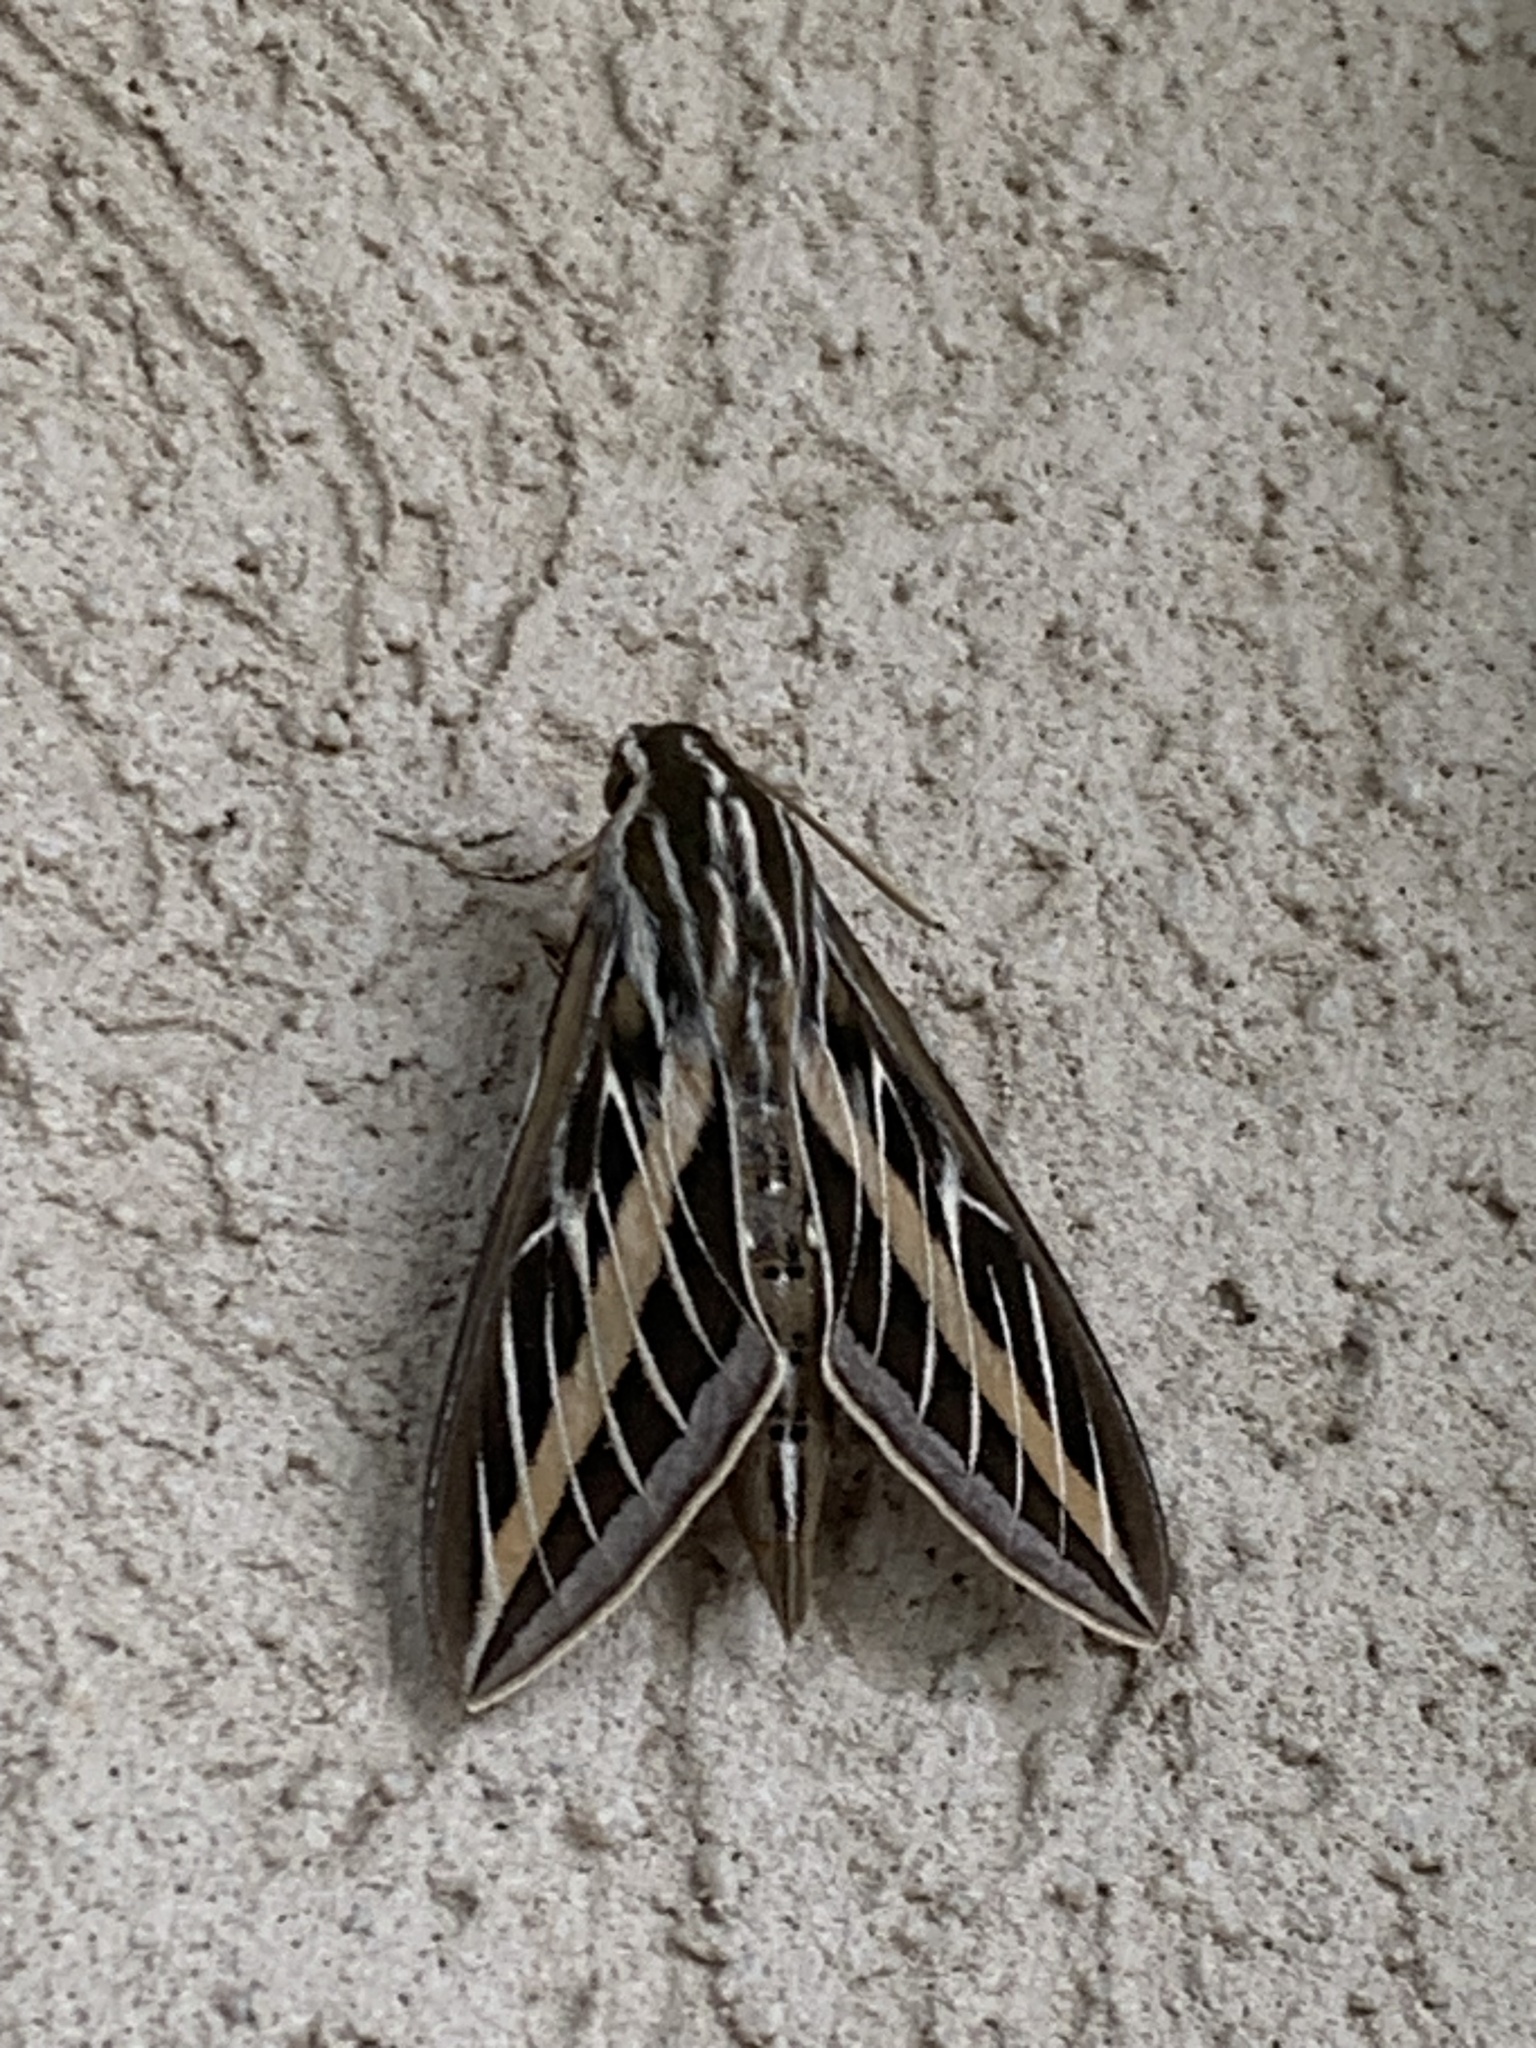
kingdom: Animalia
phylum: Arthropoda
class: Insecta
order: Lepidoptera
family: Sphingidae
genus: Hyles
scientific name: Hyles lineata
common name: White-lined sphinx
